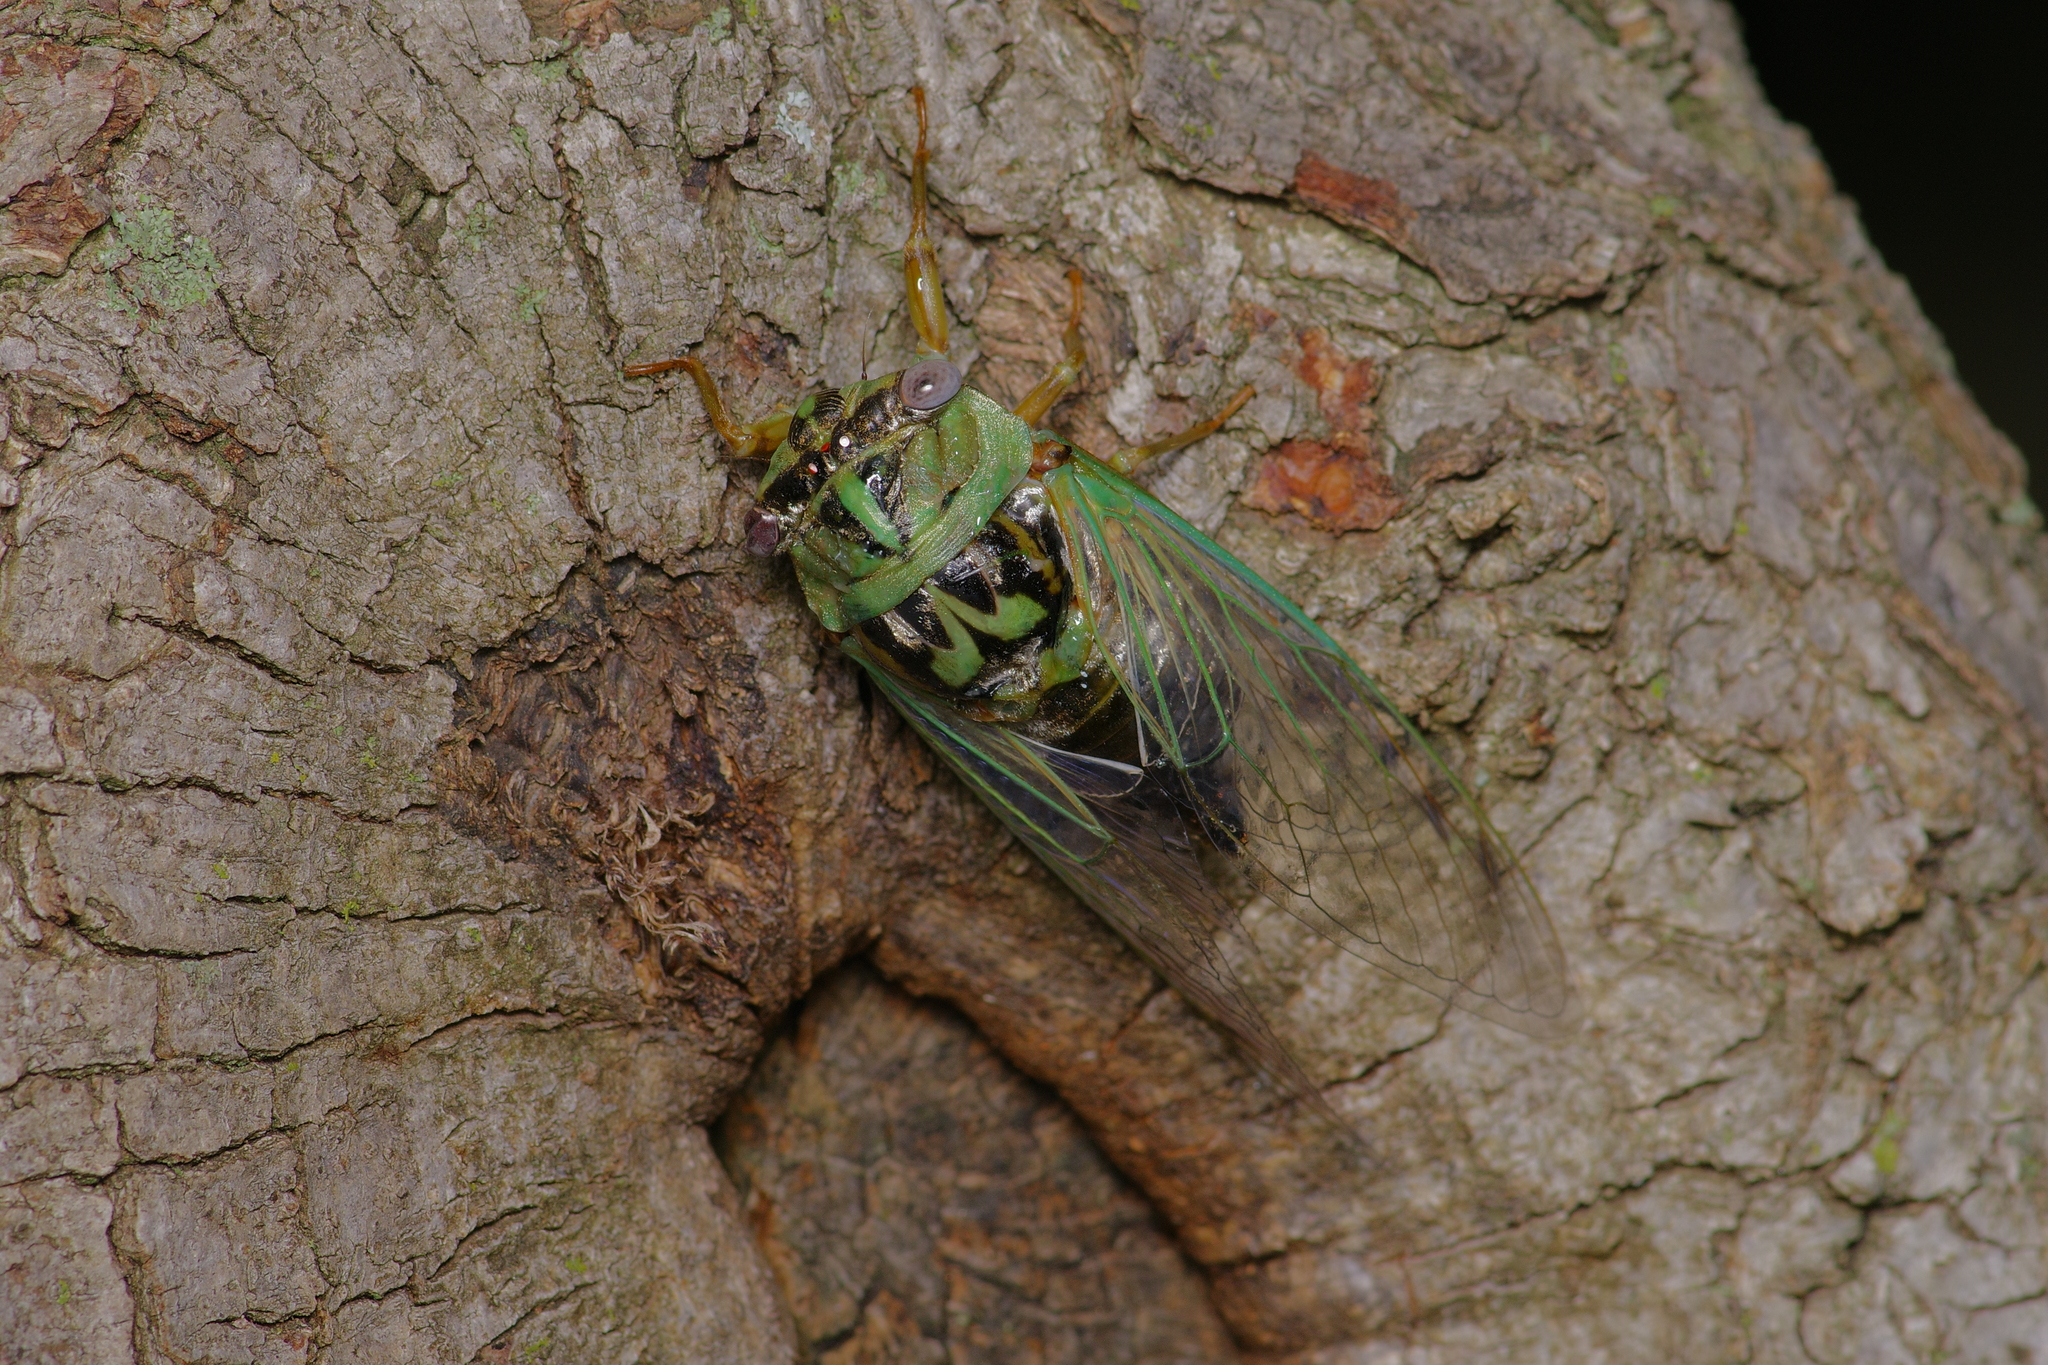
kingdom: Animalia
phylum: Arthropoda
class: Insecta
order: Hemiptera
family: Cicadidae
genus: Megatibicen
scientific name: Megatibicen resh
